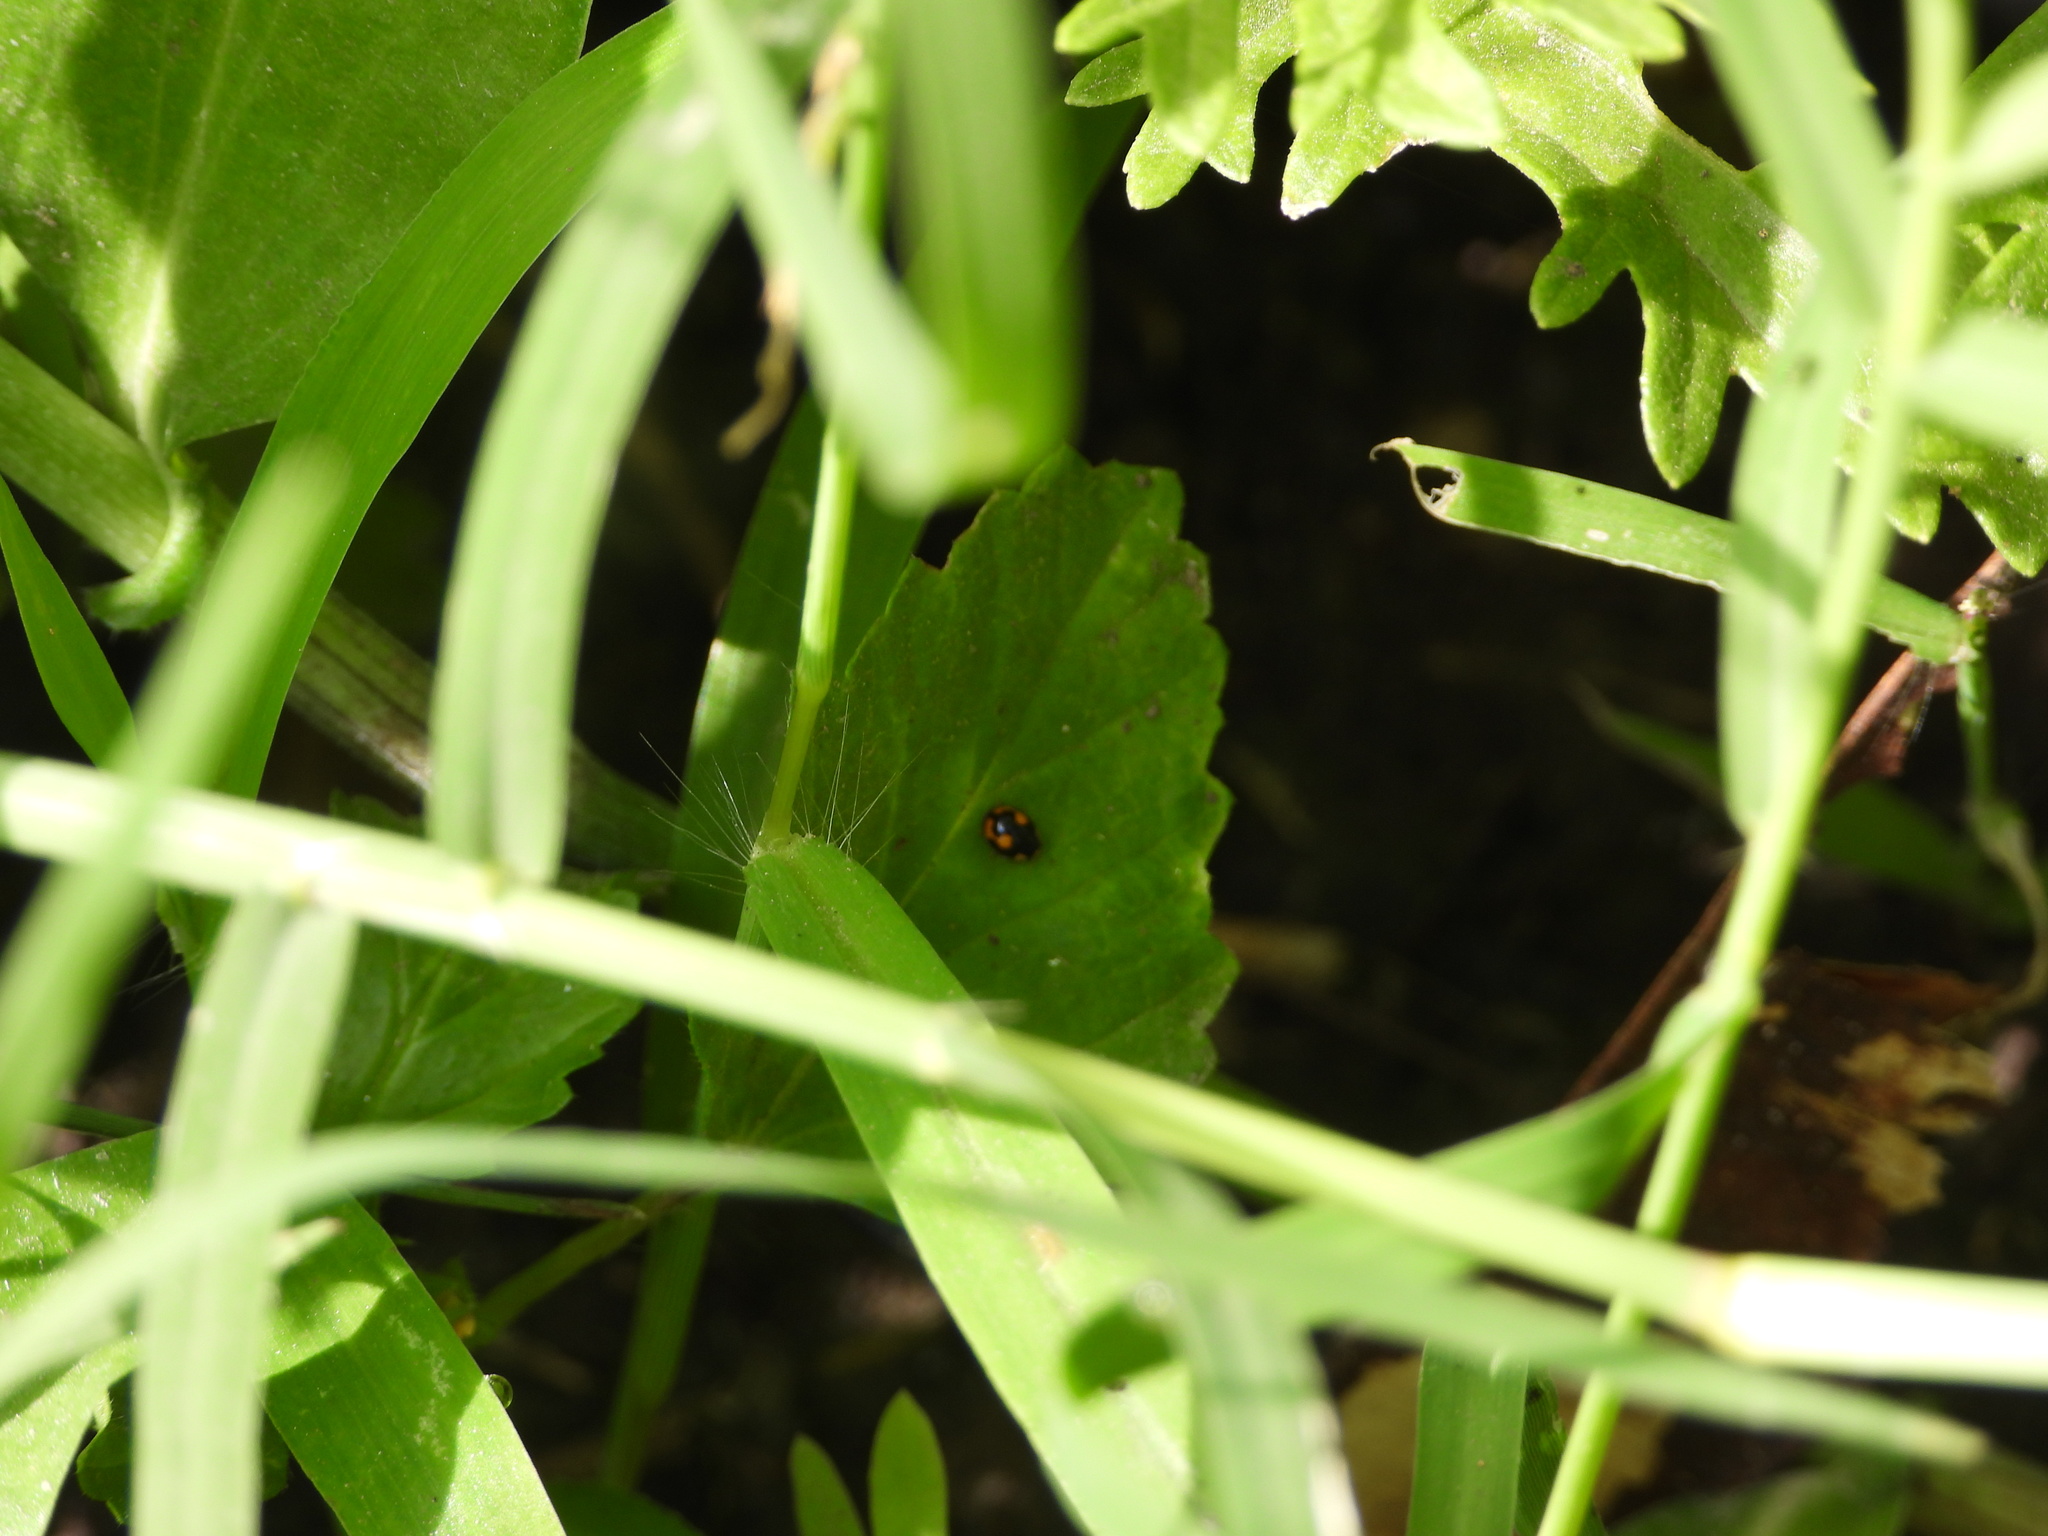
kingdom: Animalia
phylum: Arthropoda
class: Insecta
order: Coleoptera
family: Coccinellidae
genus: Hyperaspis
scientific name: Hyperaspis connectens
